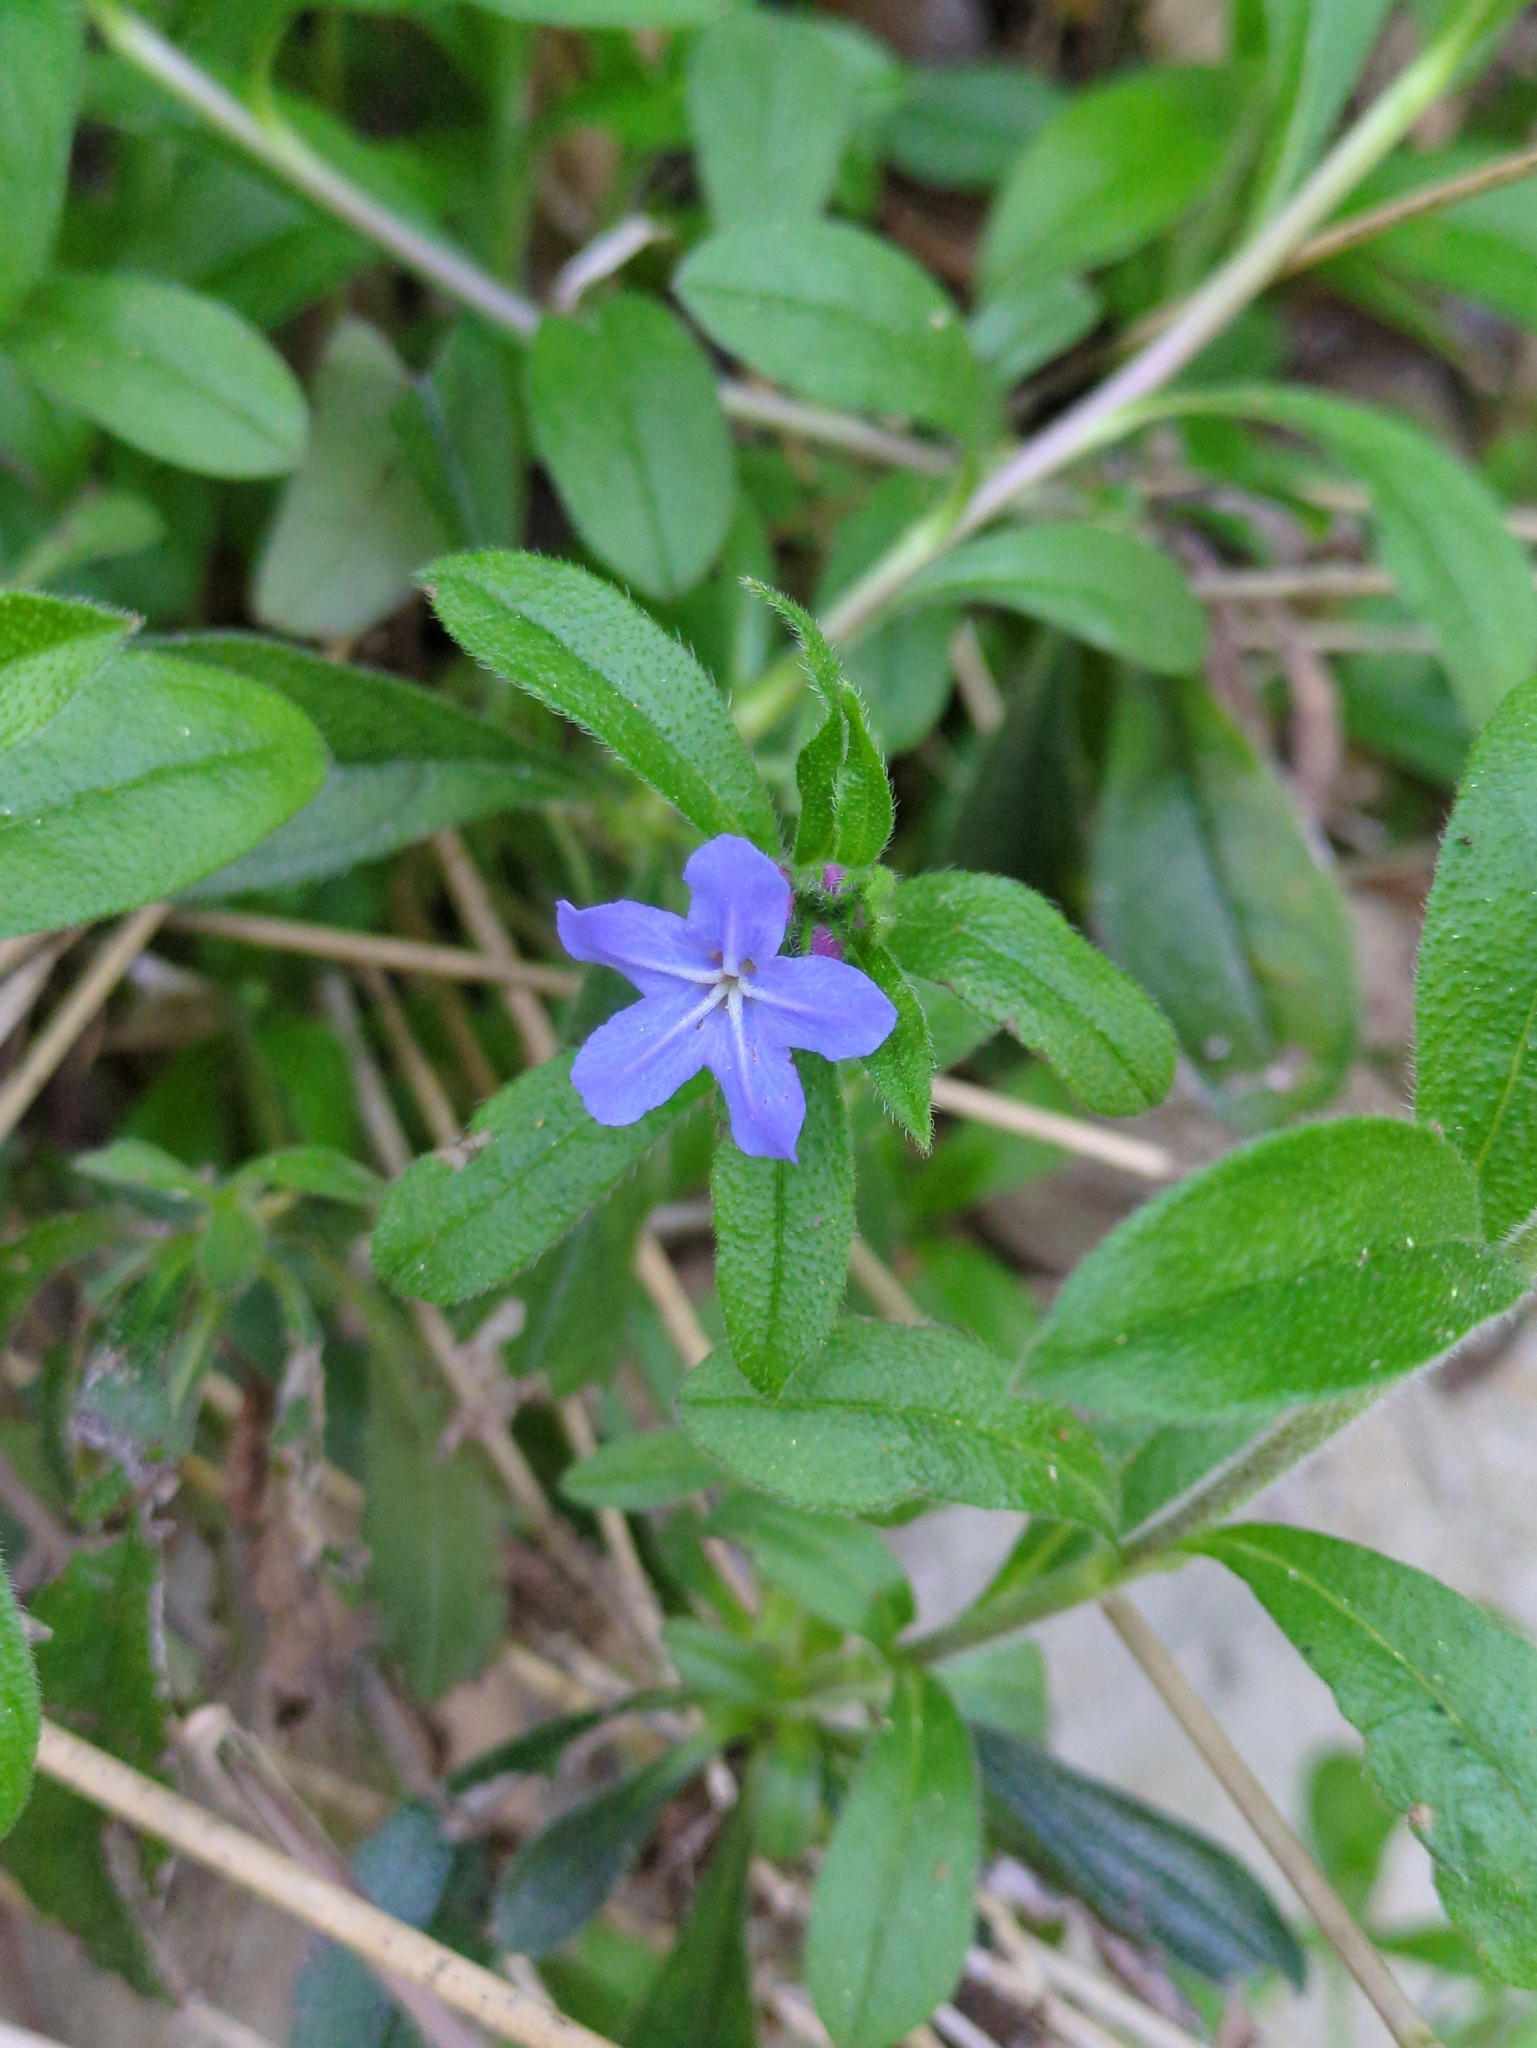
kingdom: Plantae
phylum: Tracheophyta
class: Magnoliopsida
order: Boraginales
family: Boraginaceae
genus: Aegonychon
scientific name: Aegonychon zollingeri
